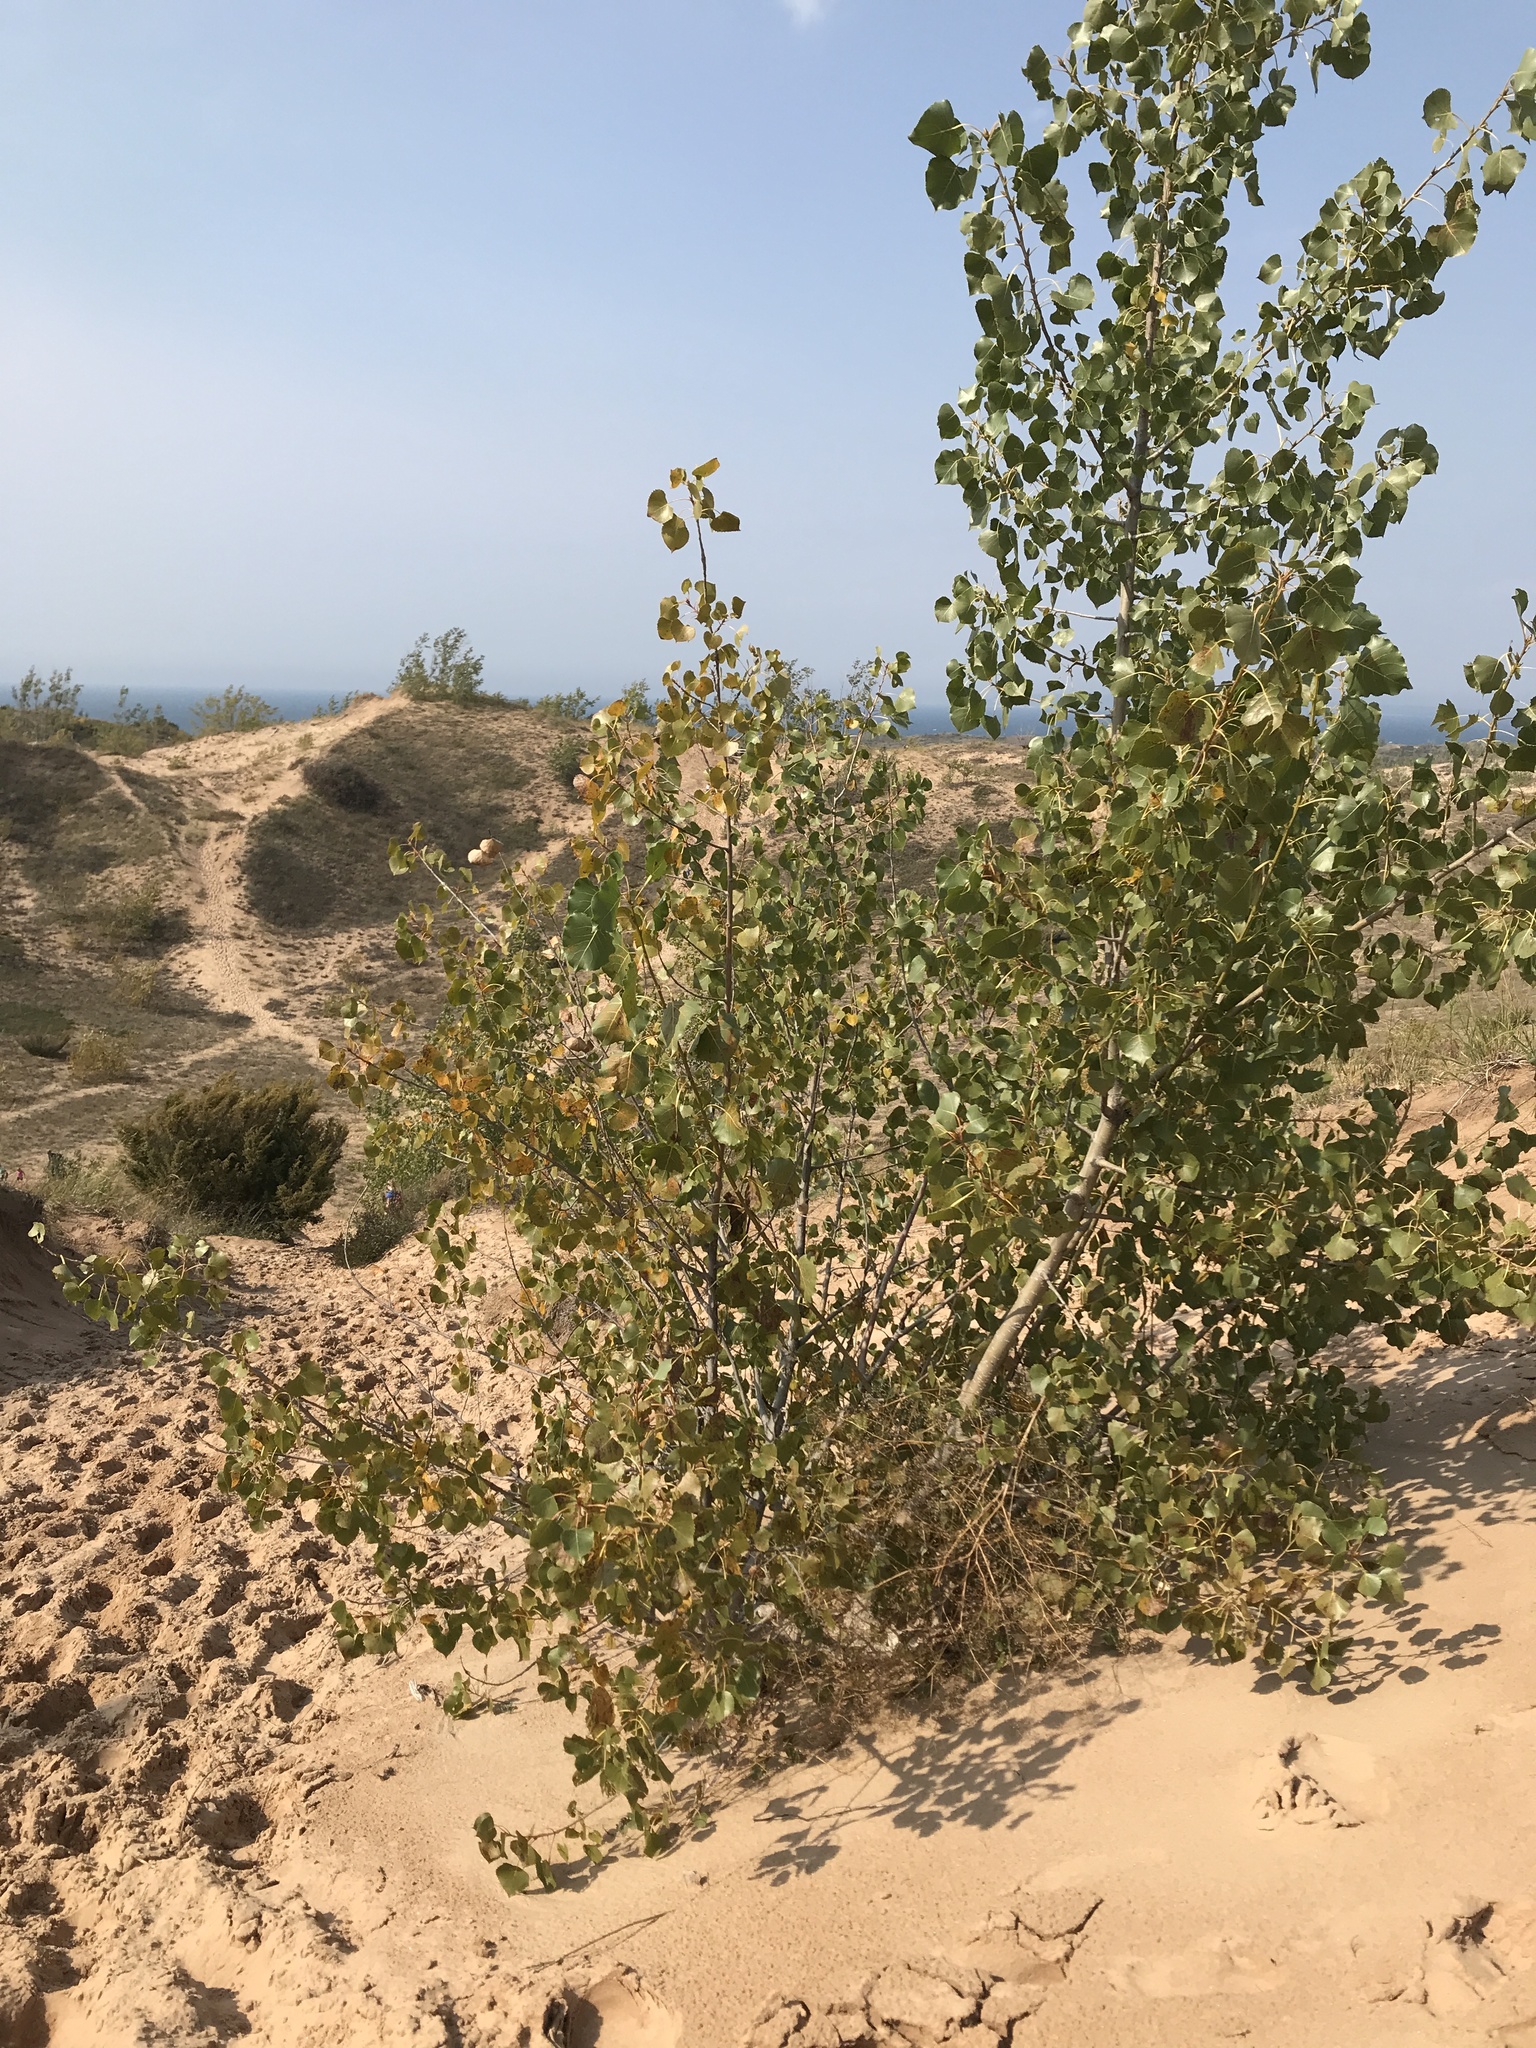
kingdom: Plantae
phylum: Tracheophyta
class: Magnoliopsida
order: Malpighiales
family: Salicaceae
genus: Populus
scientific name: Populus deltoides
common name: Eastern cottonwood
